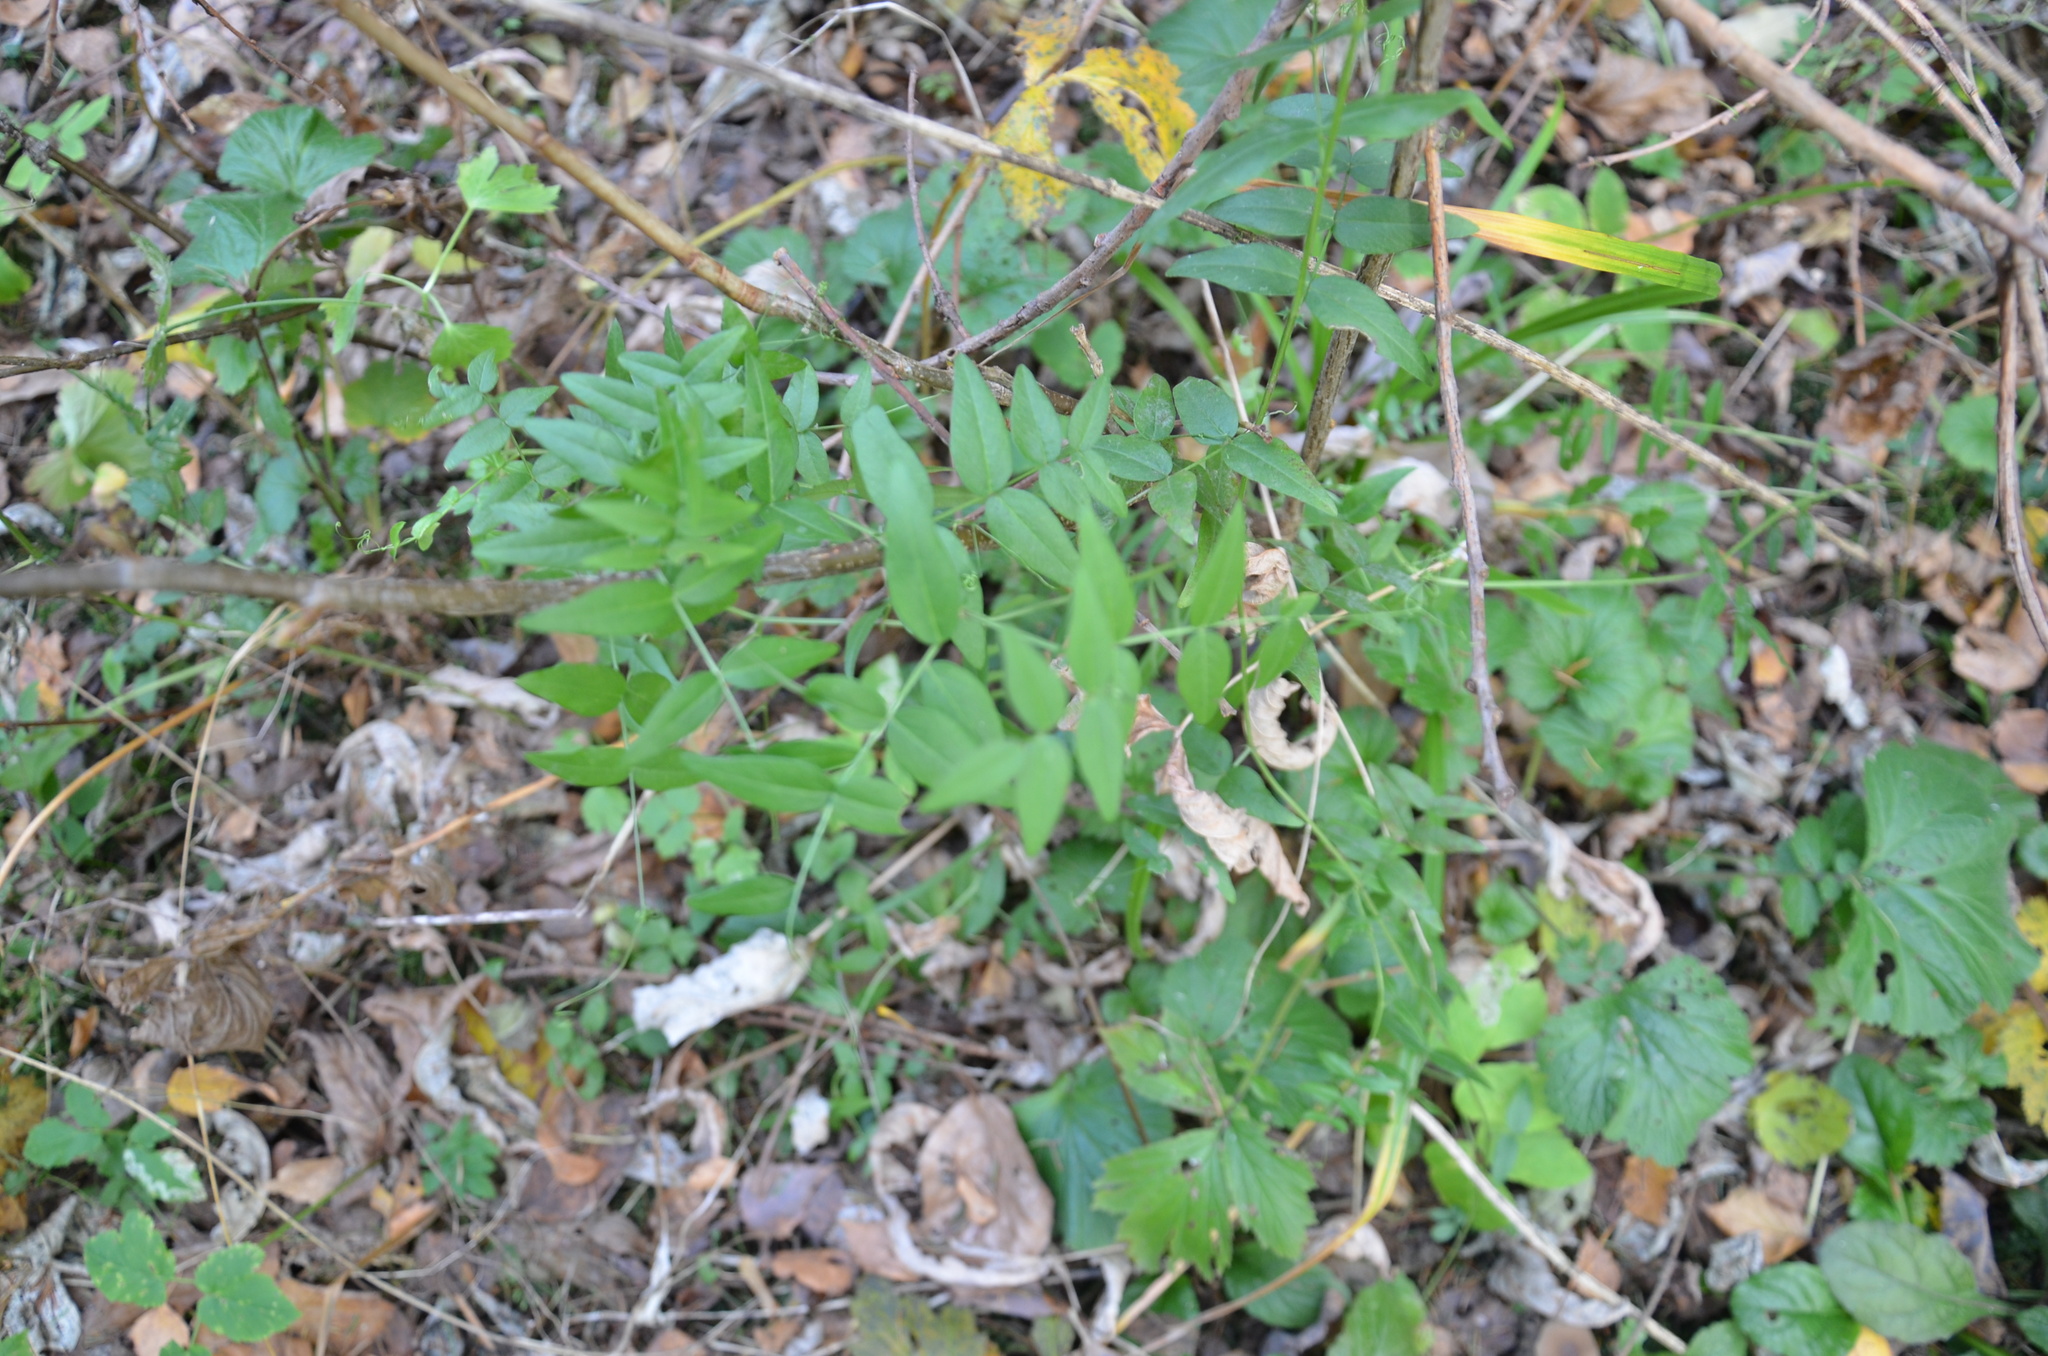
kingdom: Plantae
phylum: Tracheophyta
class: Magnoliopsida
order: Fabales
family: Fabaceae
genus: Vicia
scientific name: Vicia sepium
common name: Bush vetch
